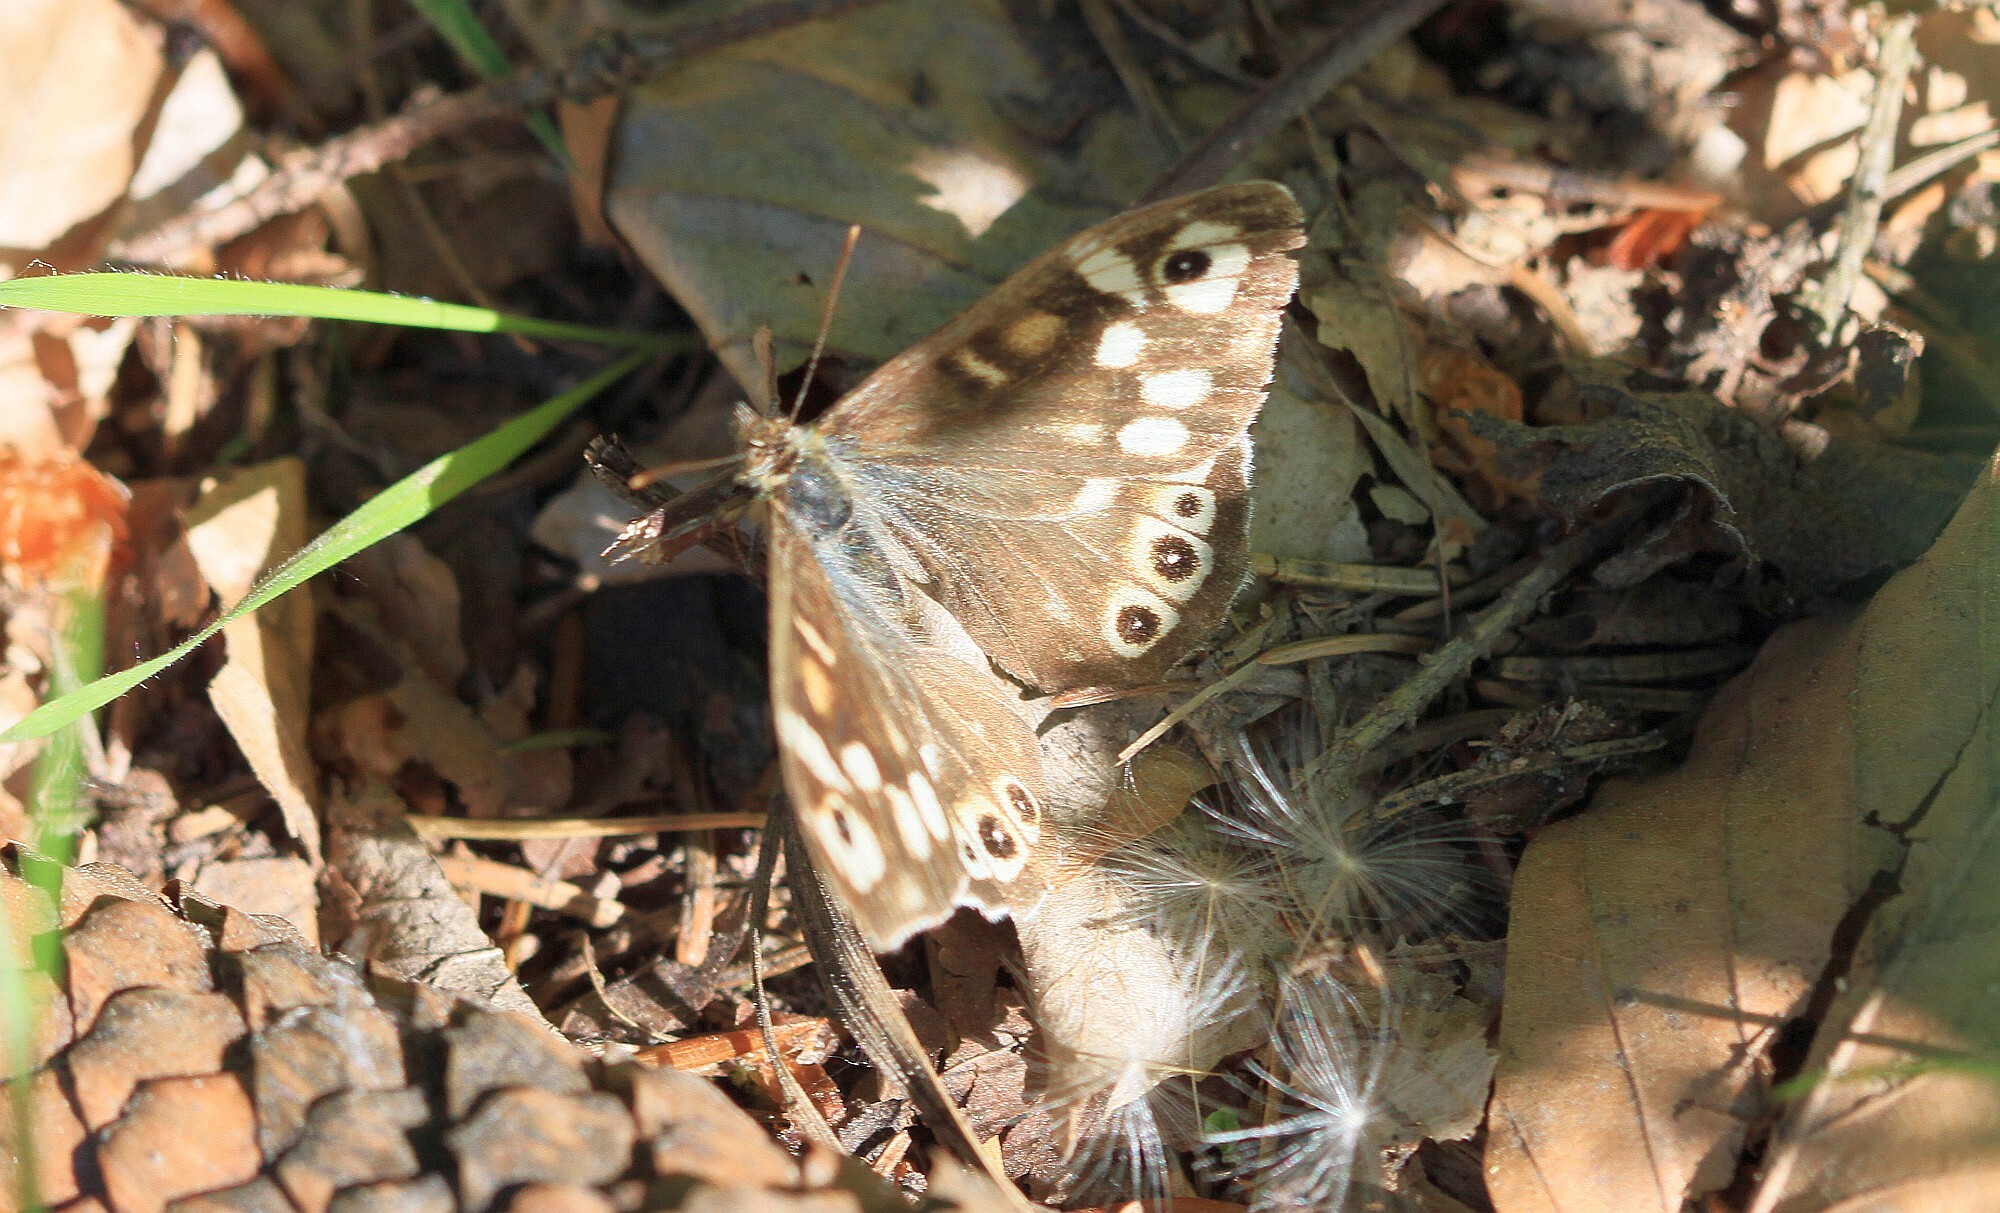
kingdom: Animalia
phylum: Arthropoda
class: Insecta
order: Lepidoptera
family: Nymphalidae
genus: Pararge
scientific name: Pararge aegeria
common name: Speckled wood
